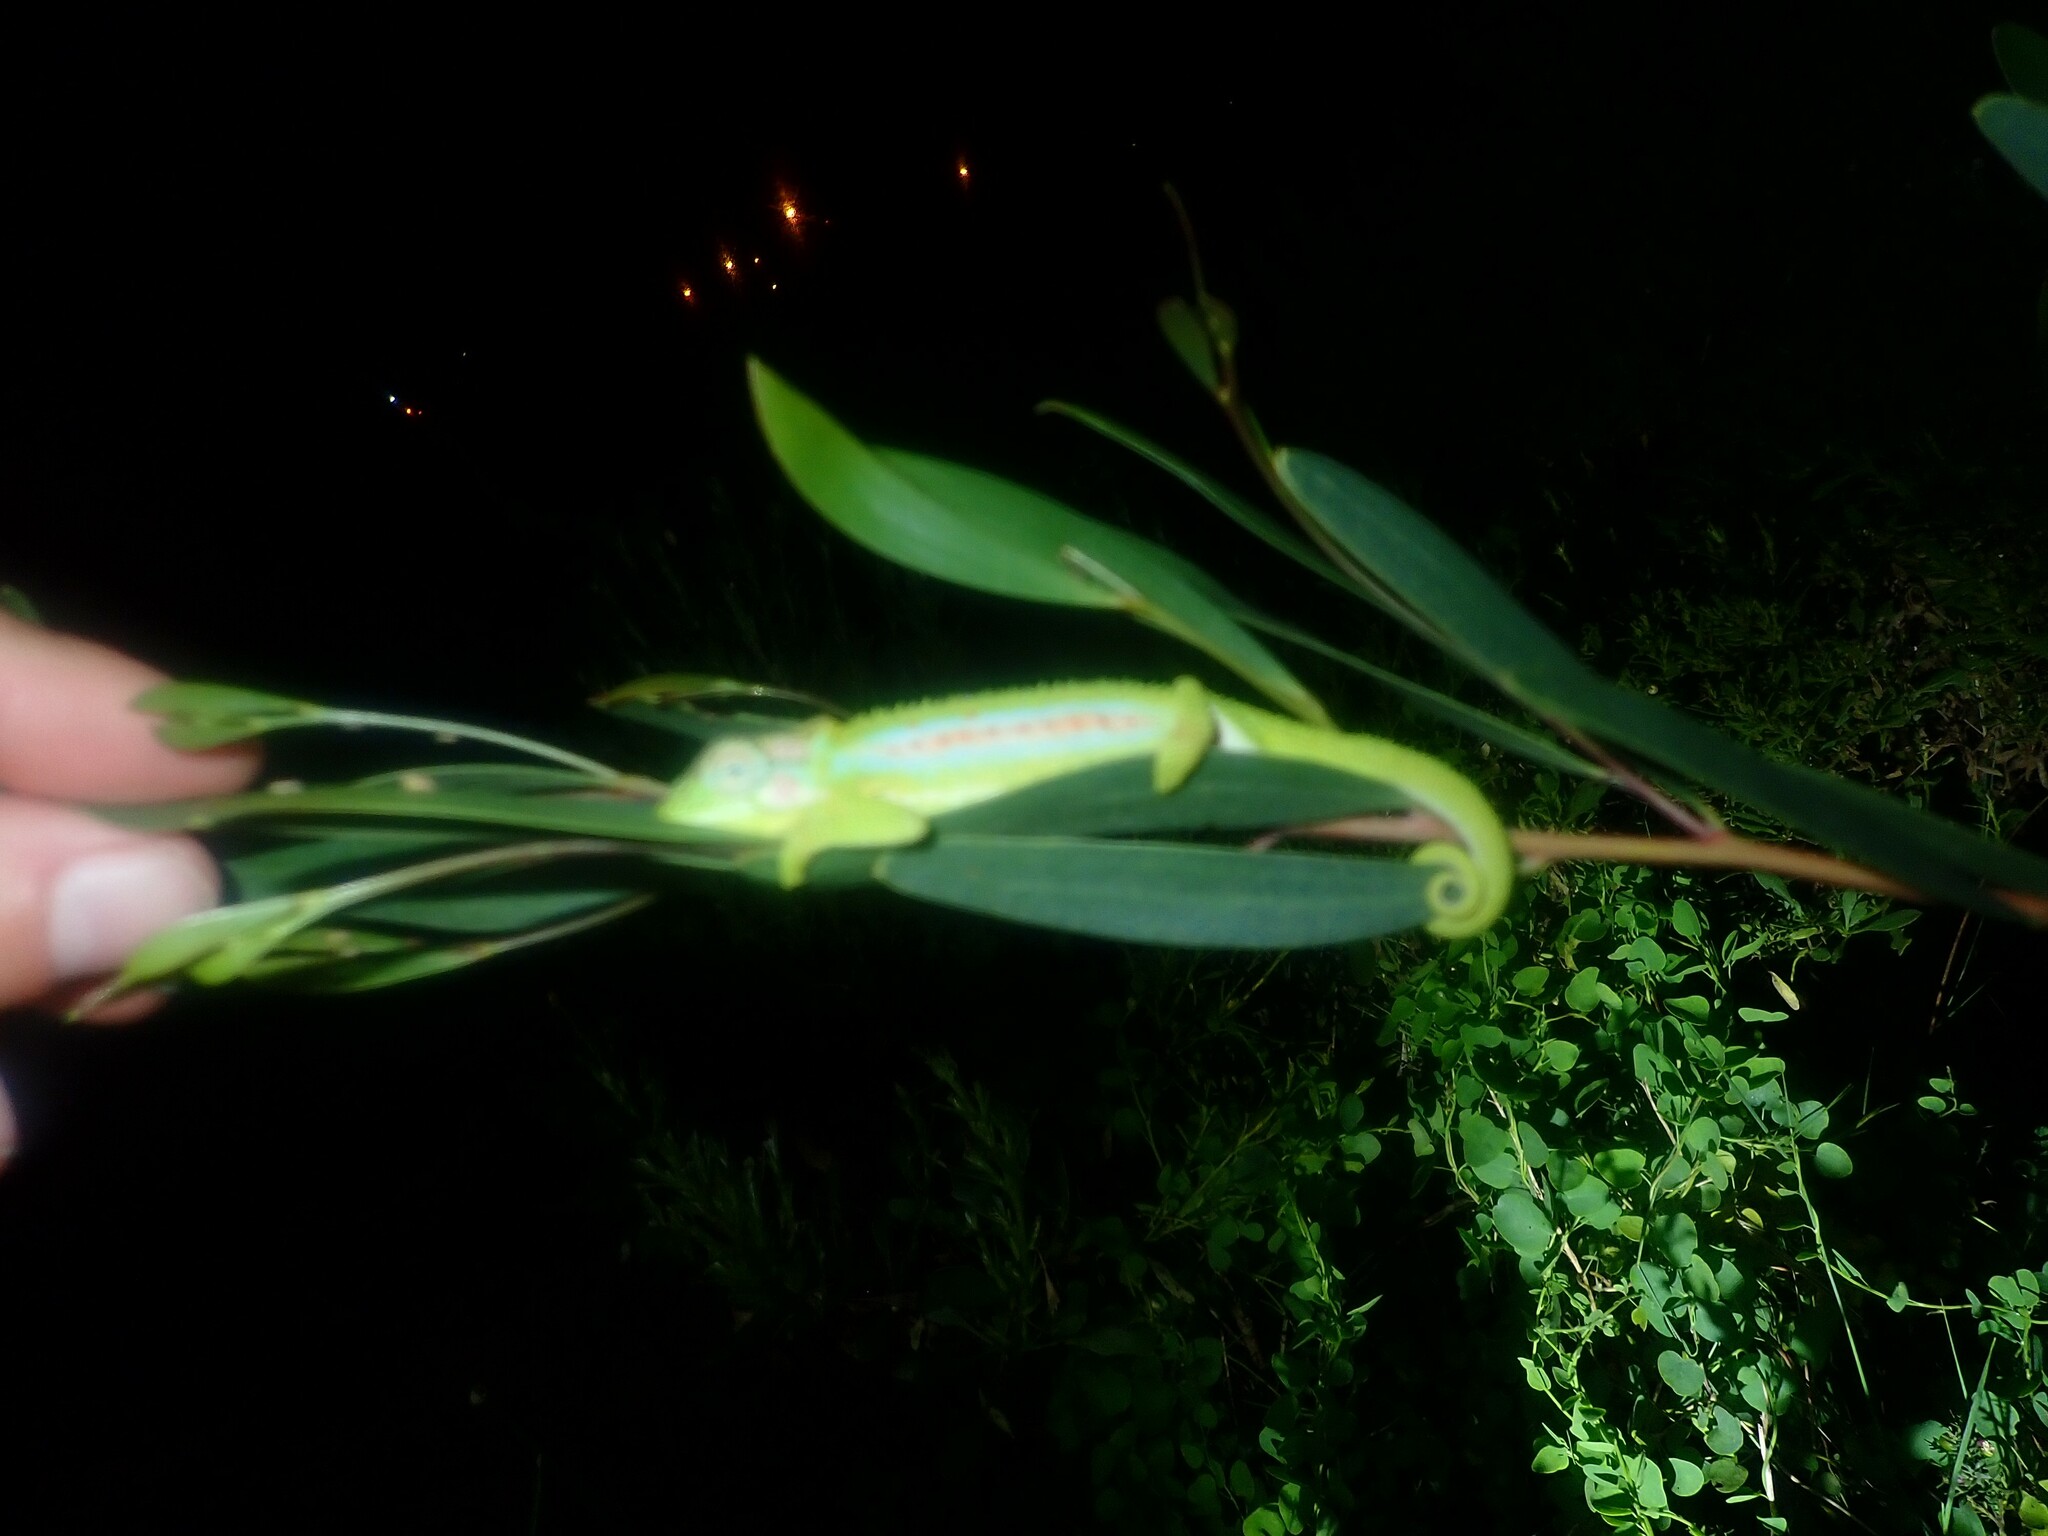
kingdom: Animalia
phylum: Chordata
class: Squamata
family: Chamaeleonidae
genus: Bradypodion
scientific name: Bradypodion pumilum
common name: Cape dwarf chameleon
